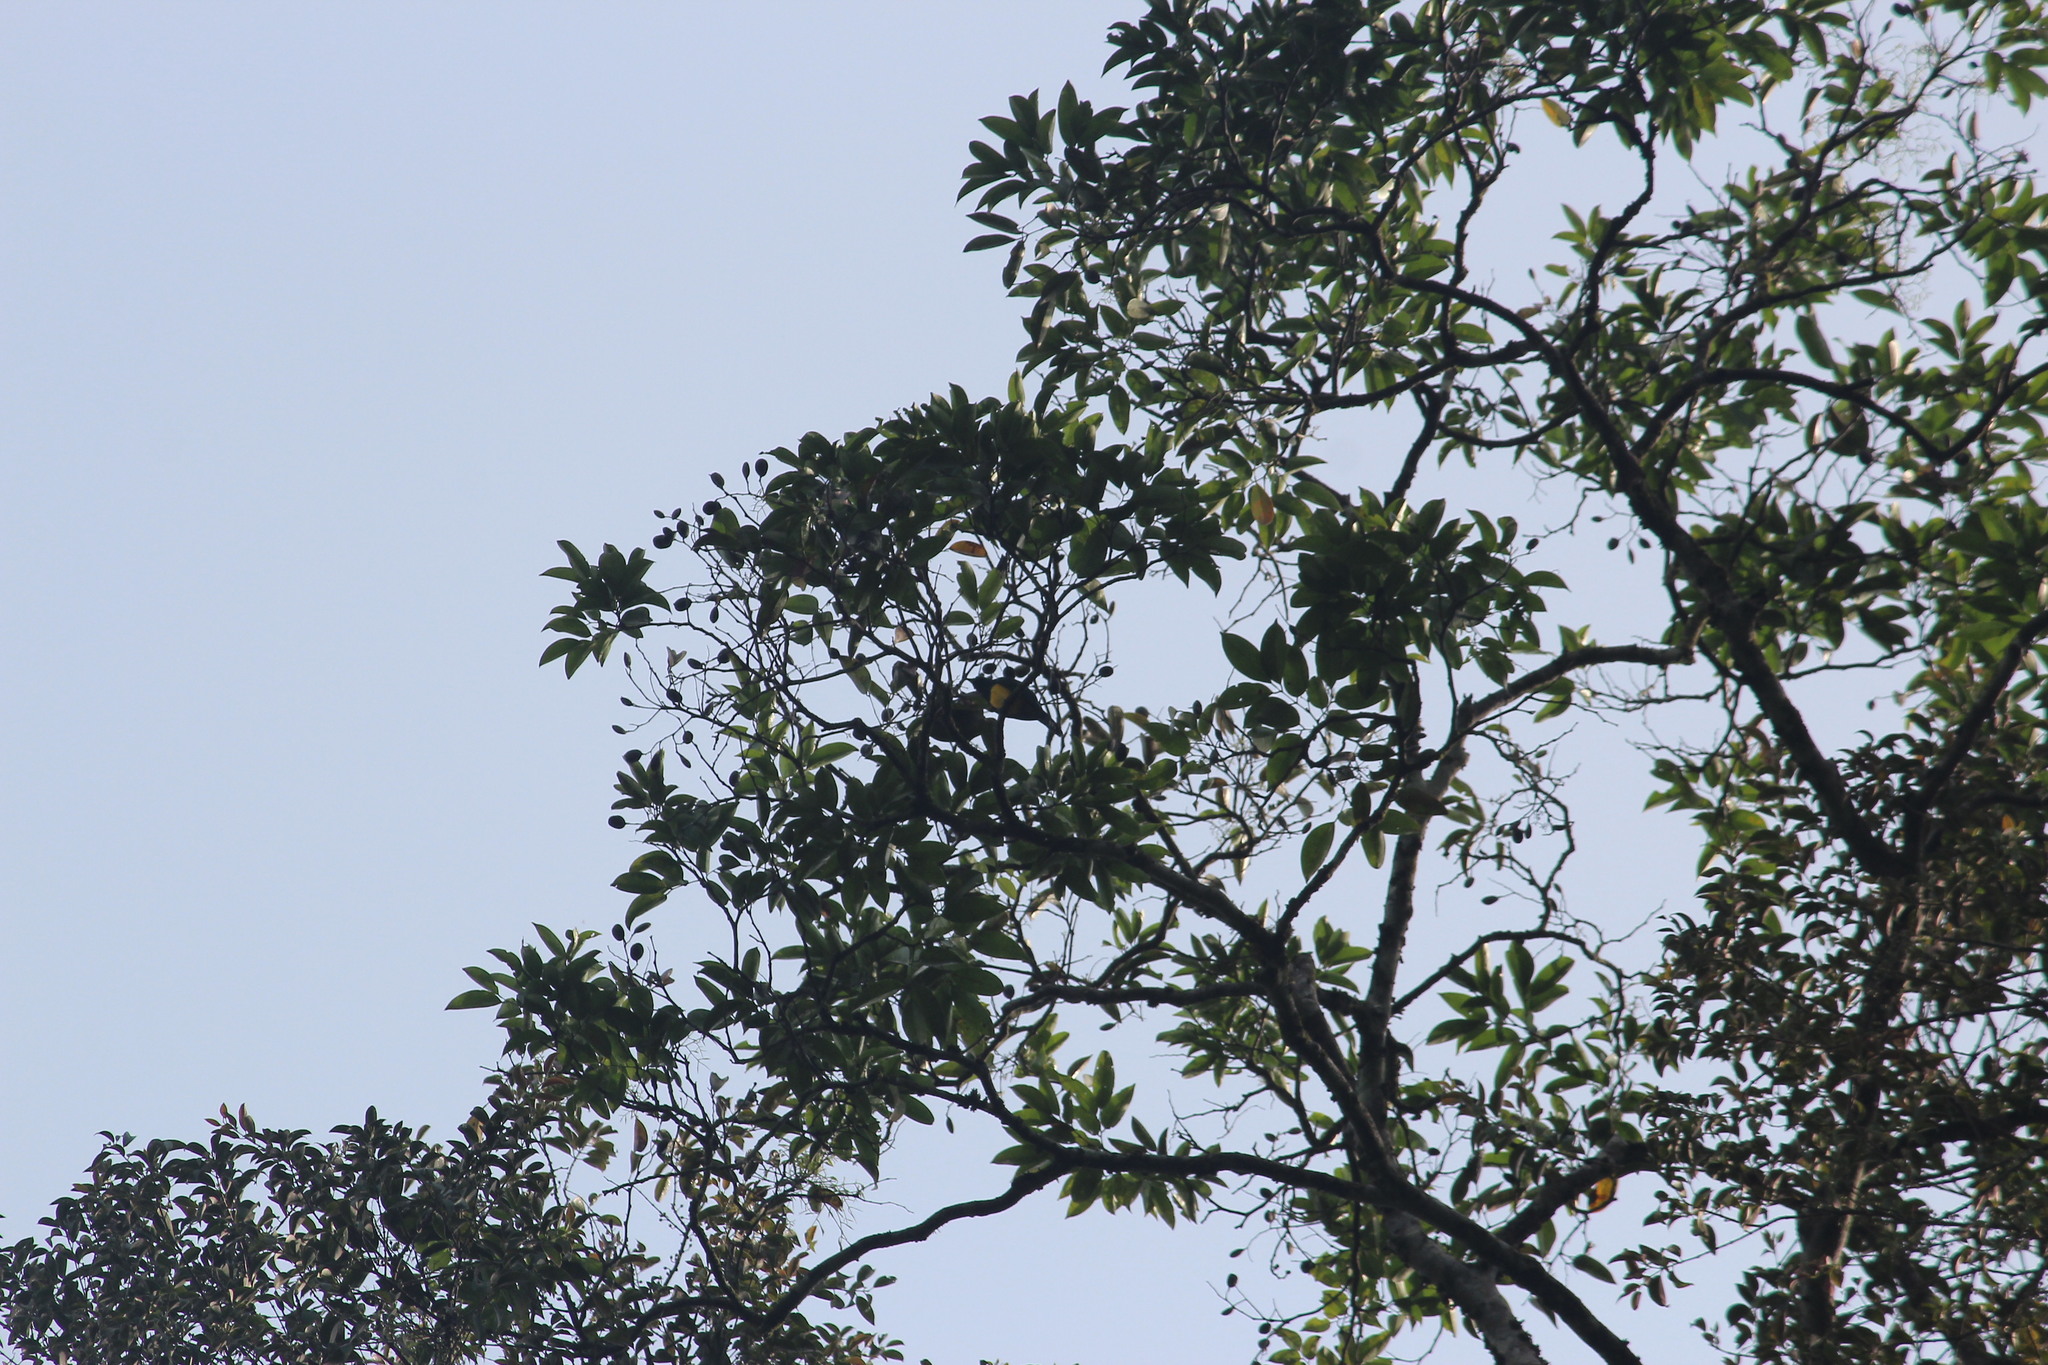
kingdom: Animalia
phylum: Chordata
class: Aves
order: Cuculiformes
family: Cuculidae
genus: Chrysococcyx
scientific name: Chrysococcyx cupreus
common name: African emerald cuckoo
